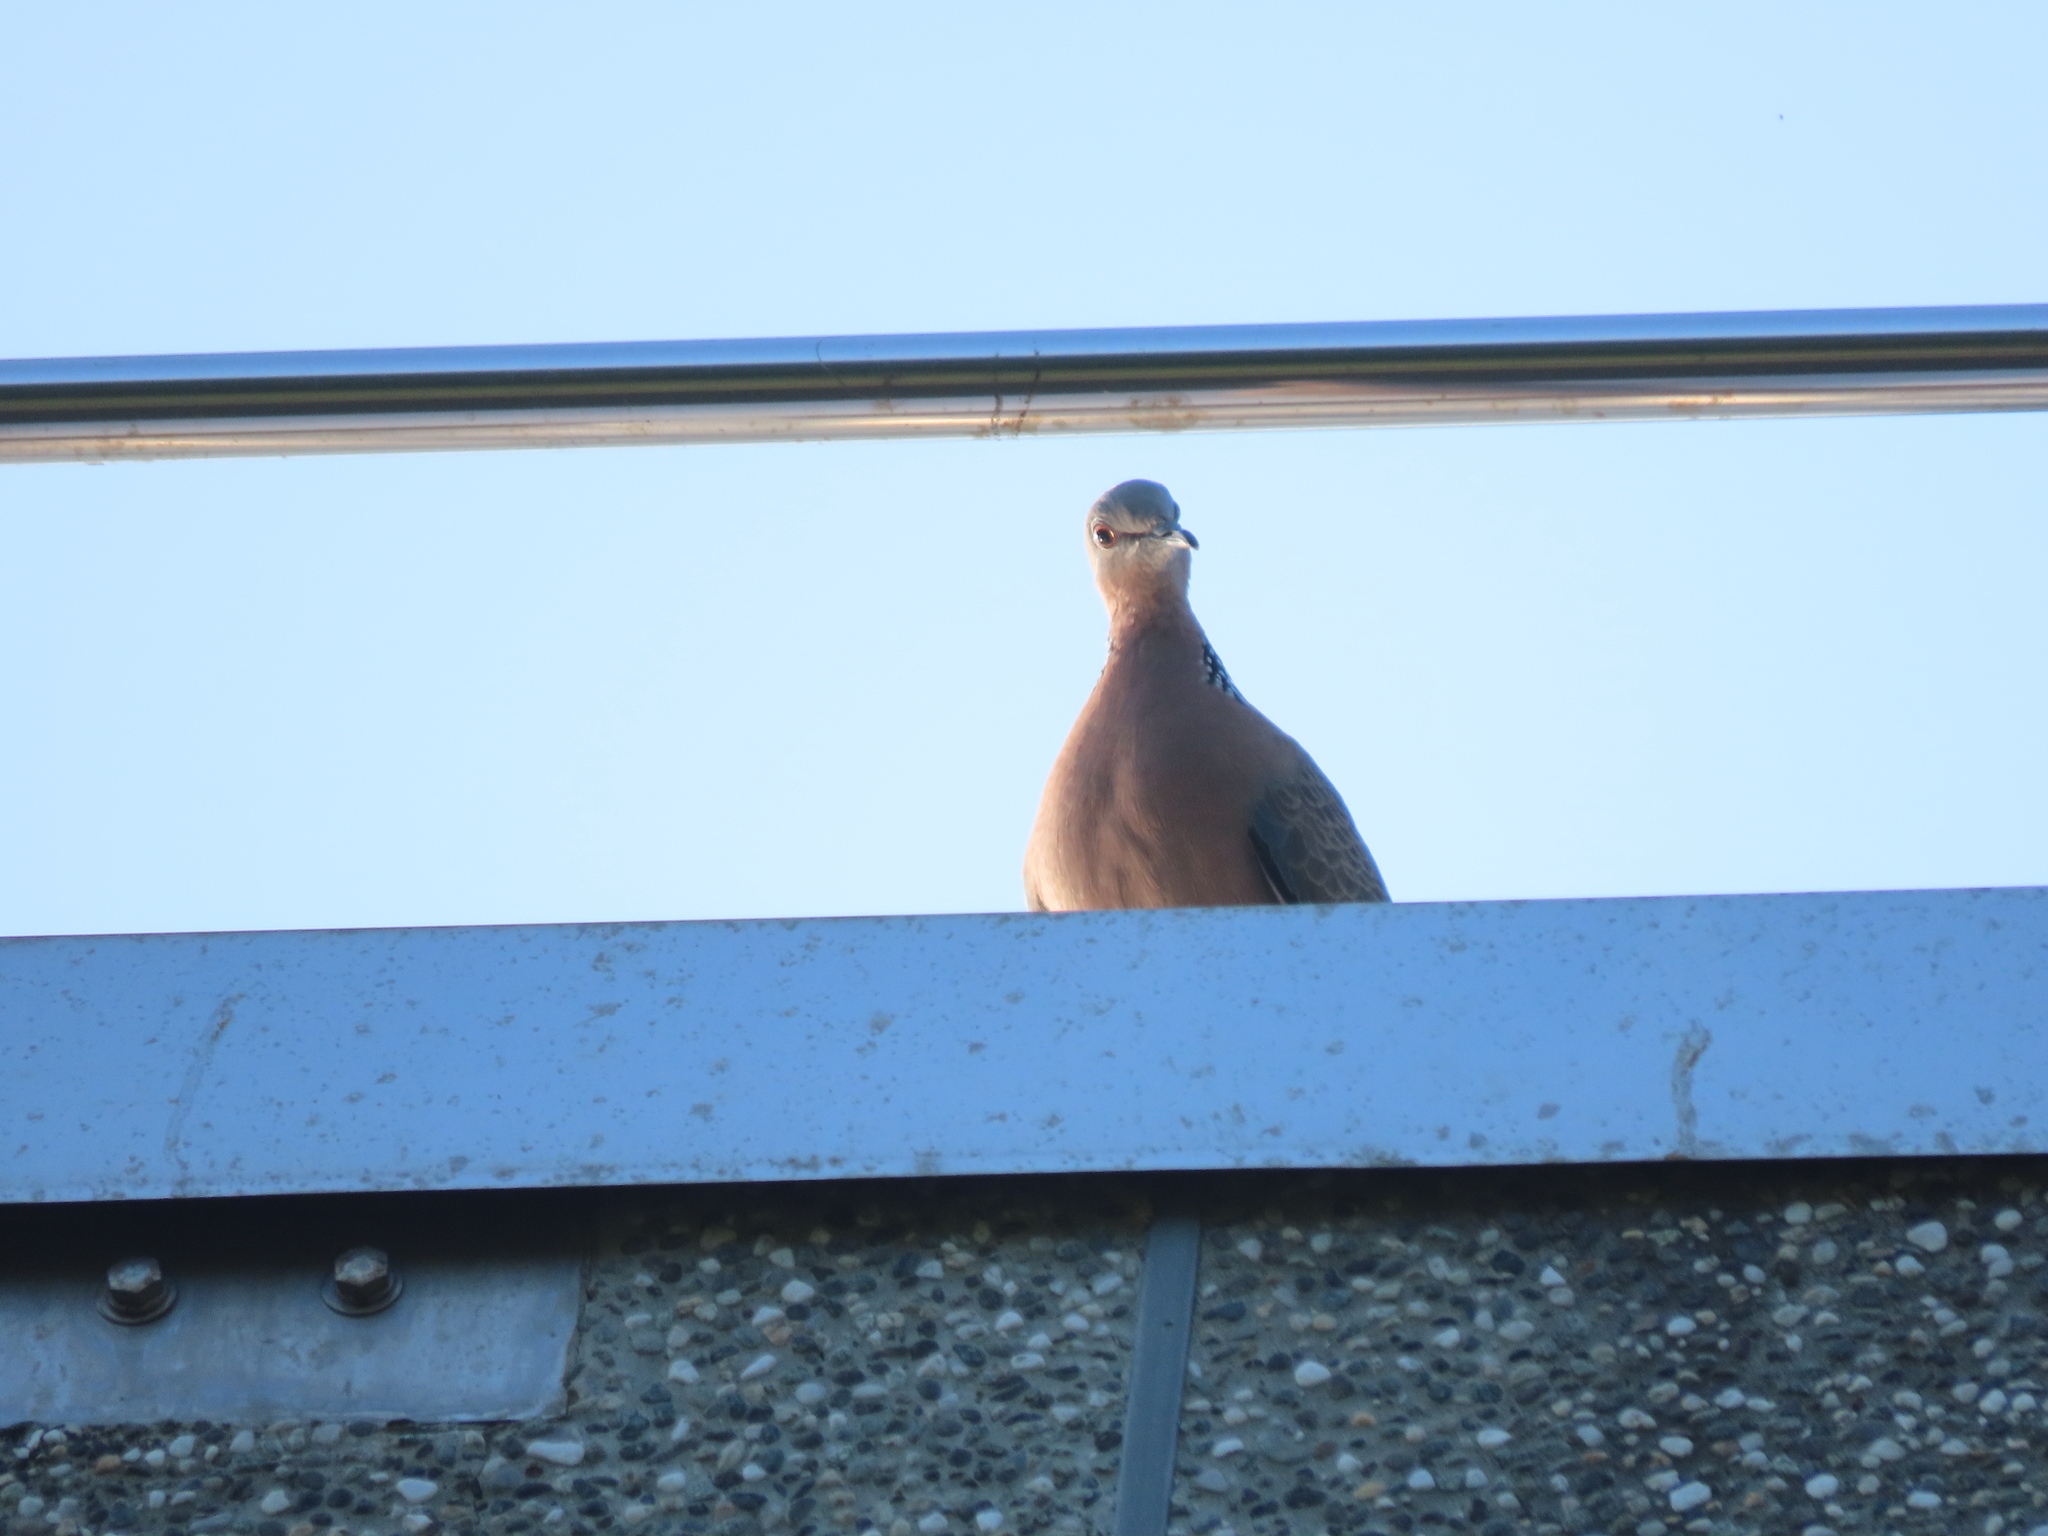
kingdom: Animalia
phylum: Chordata
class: Aves
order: Columbiformes
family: Columbidae
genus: Spilopelia
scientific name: Spilopelia chinensis
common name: Spotted dove
